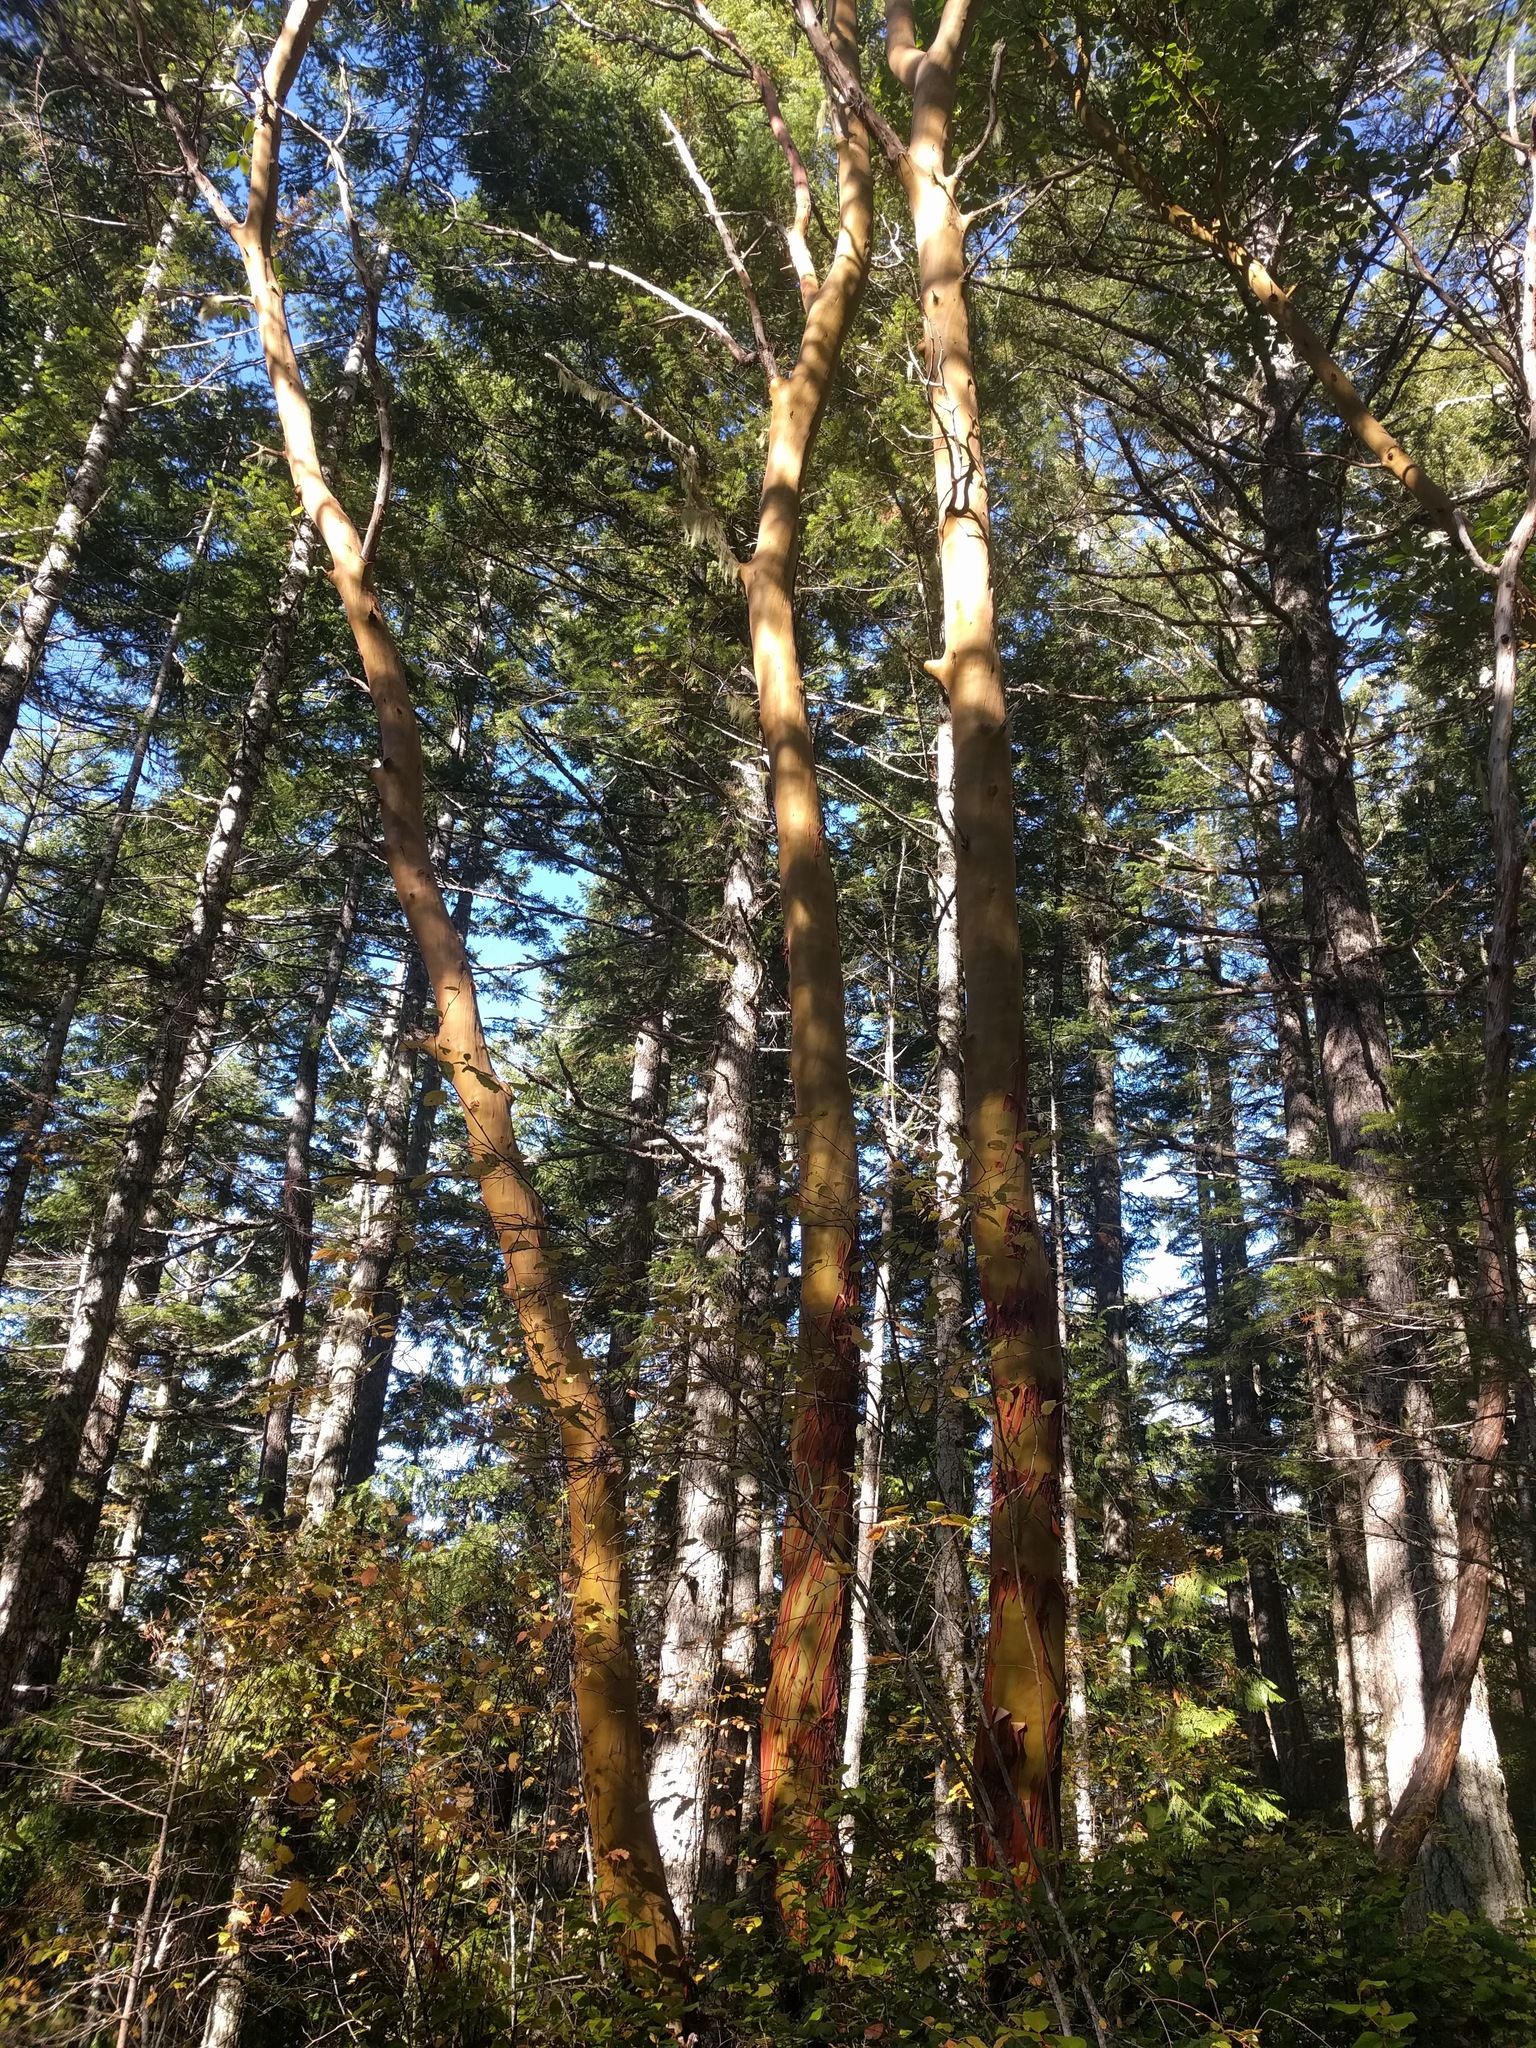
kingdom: Plantae
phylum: Tracheophyta
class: Magnoliopsida
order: Ericales
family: Ericaceae
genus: Arbutus
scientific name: Arbutus menziesii
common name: Pacific madrone
